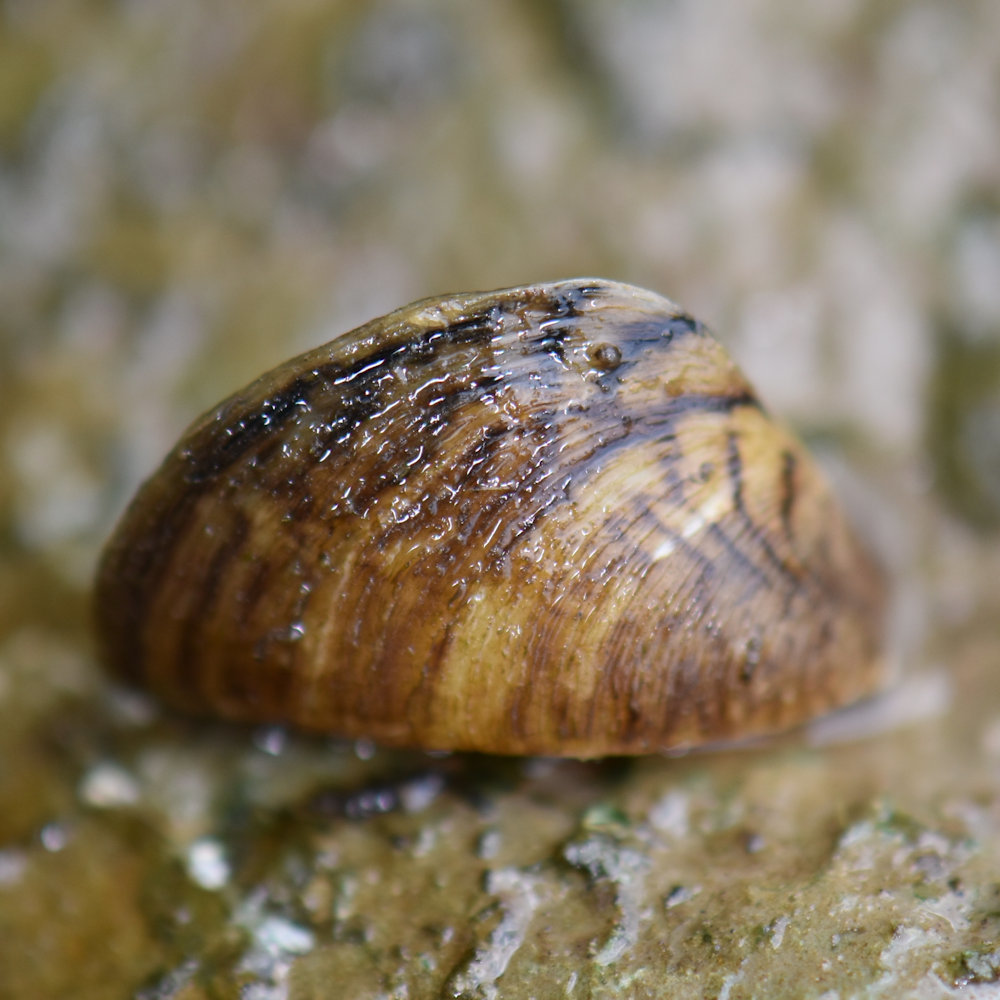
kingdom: Animalia
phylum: Mollusca
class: Bivalvia
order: Myida
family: Dreissenidae
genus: Dreissena
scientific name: Dreissena polymorpha
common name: Zebra mussel
